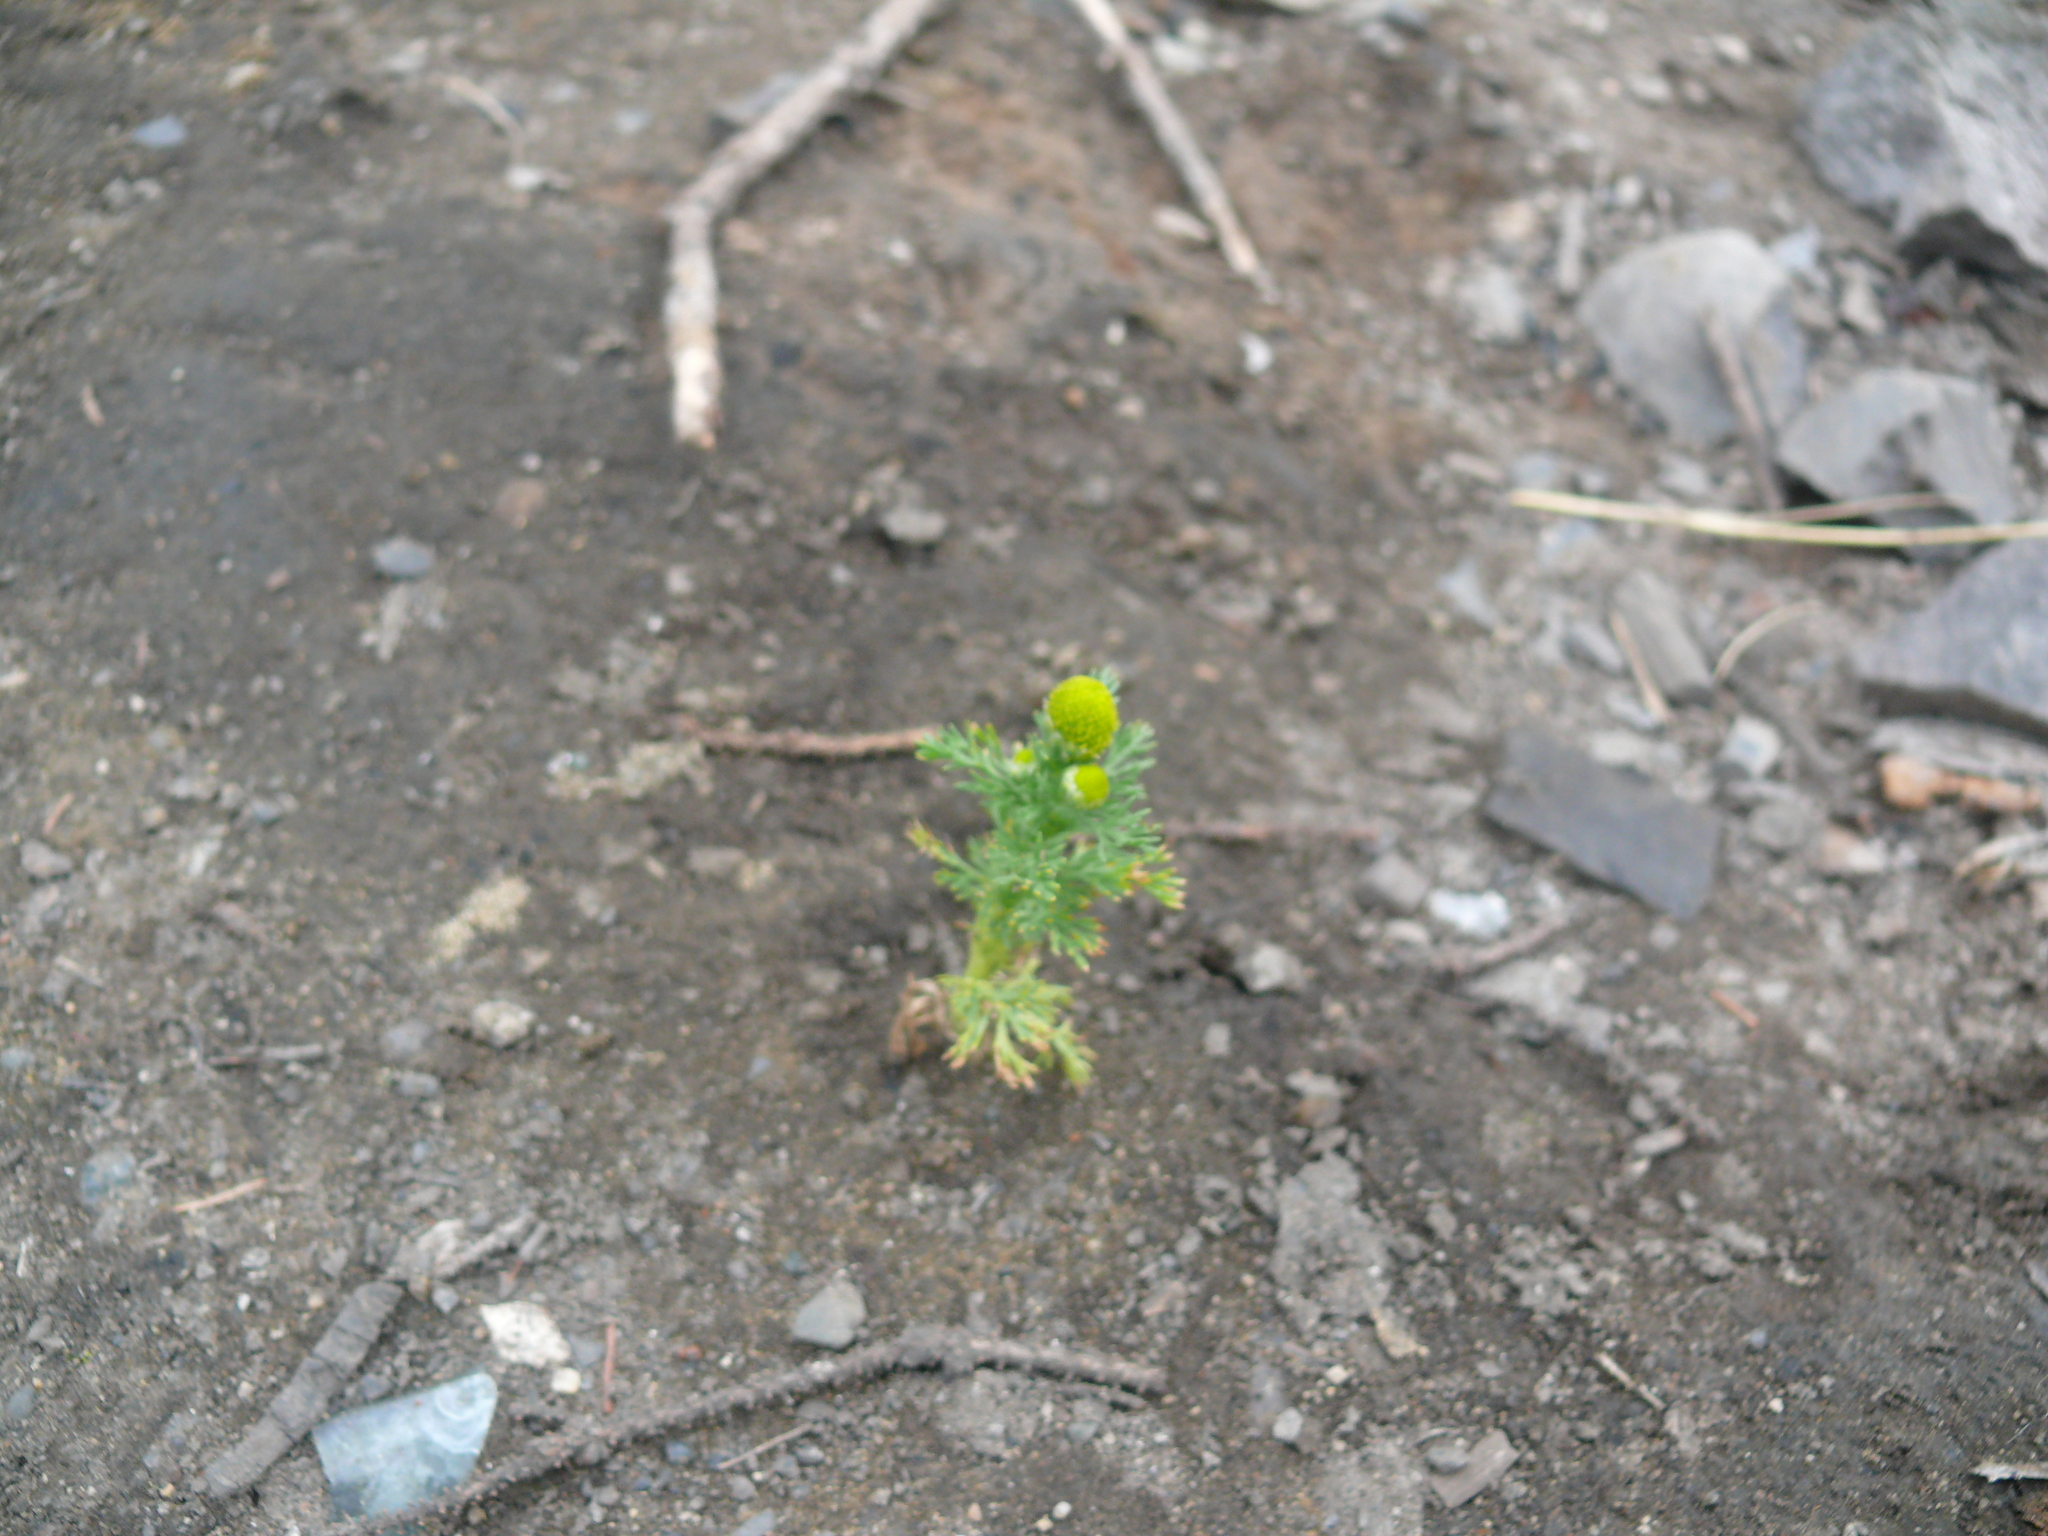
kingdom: Plantae
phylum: Tracheophyta
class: Magnoliopsida
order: Asterales
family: Asteraceae
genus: Matricaria
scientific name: Matricaria discoidea
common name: Disc mayweed
